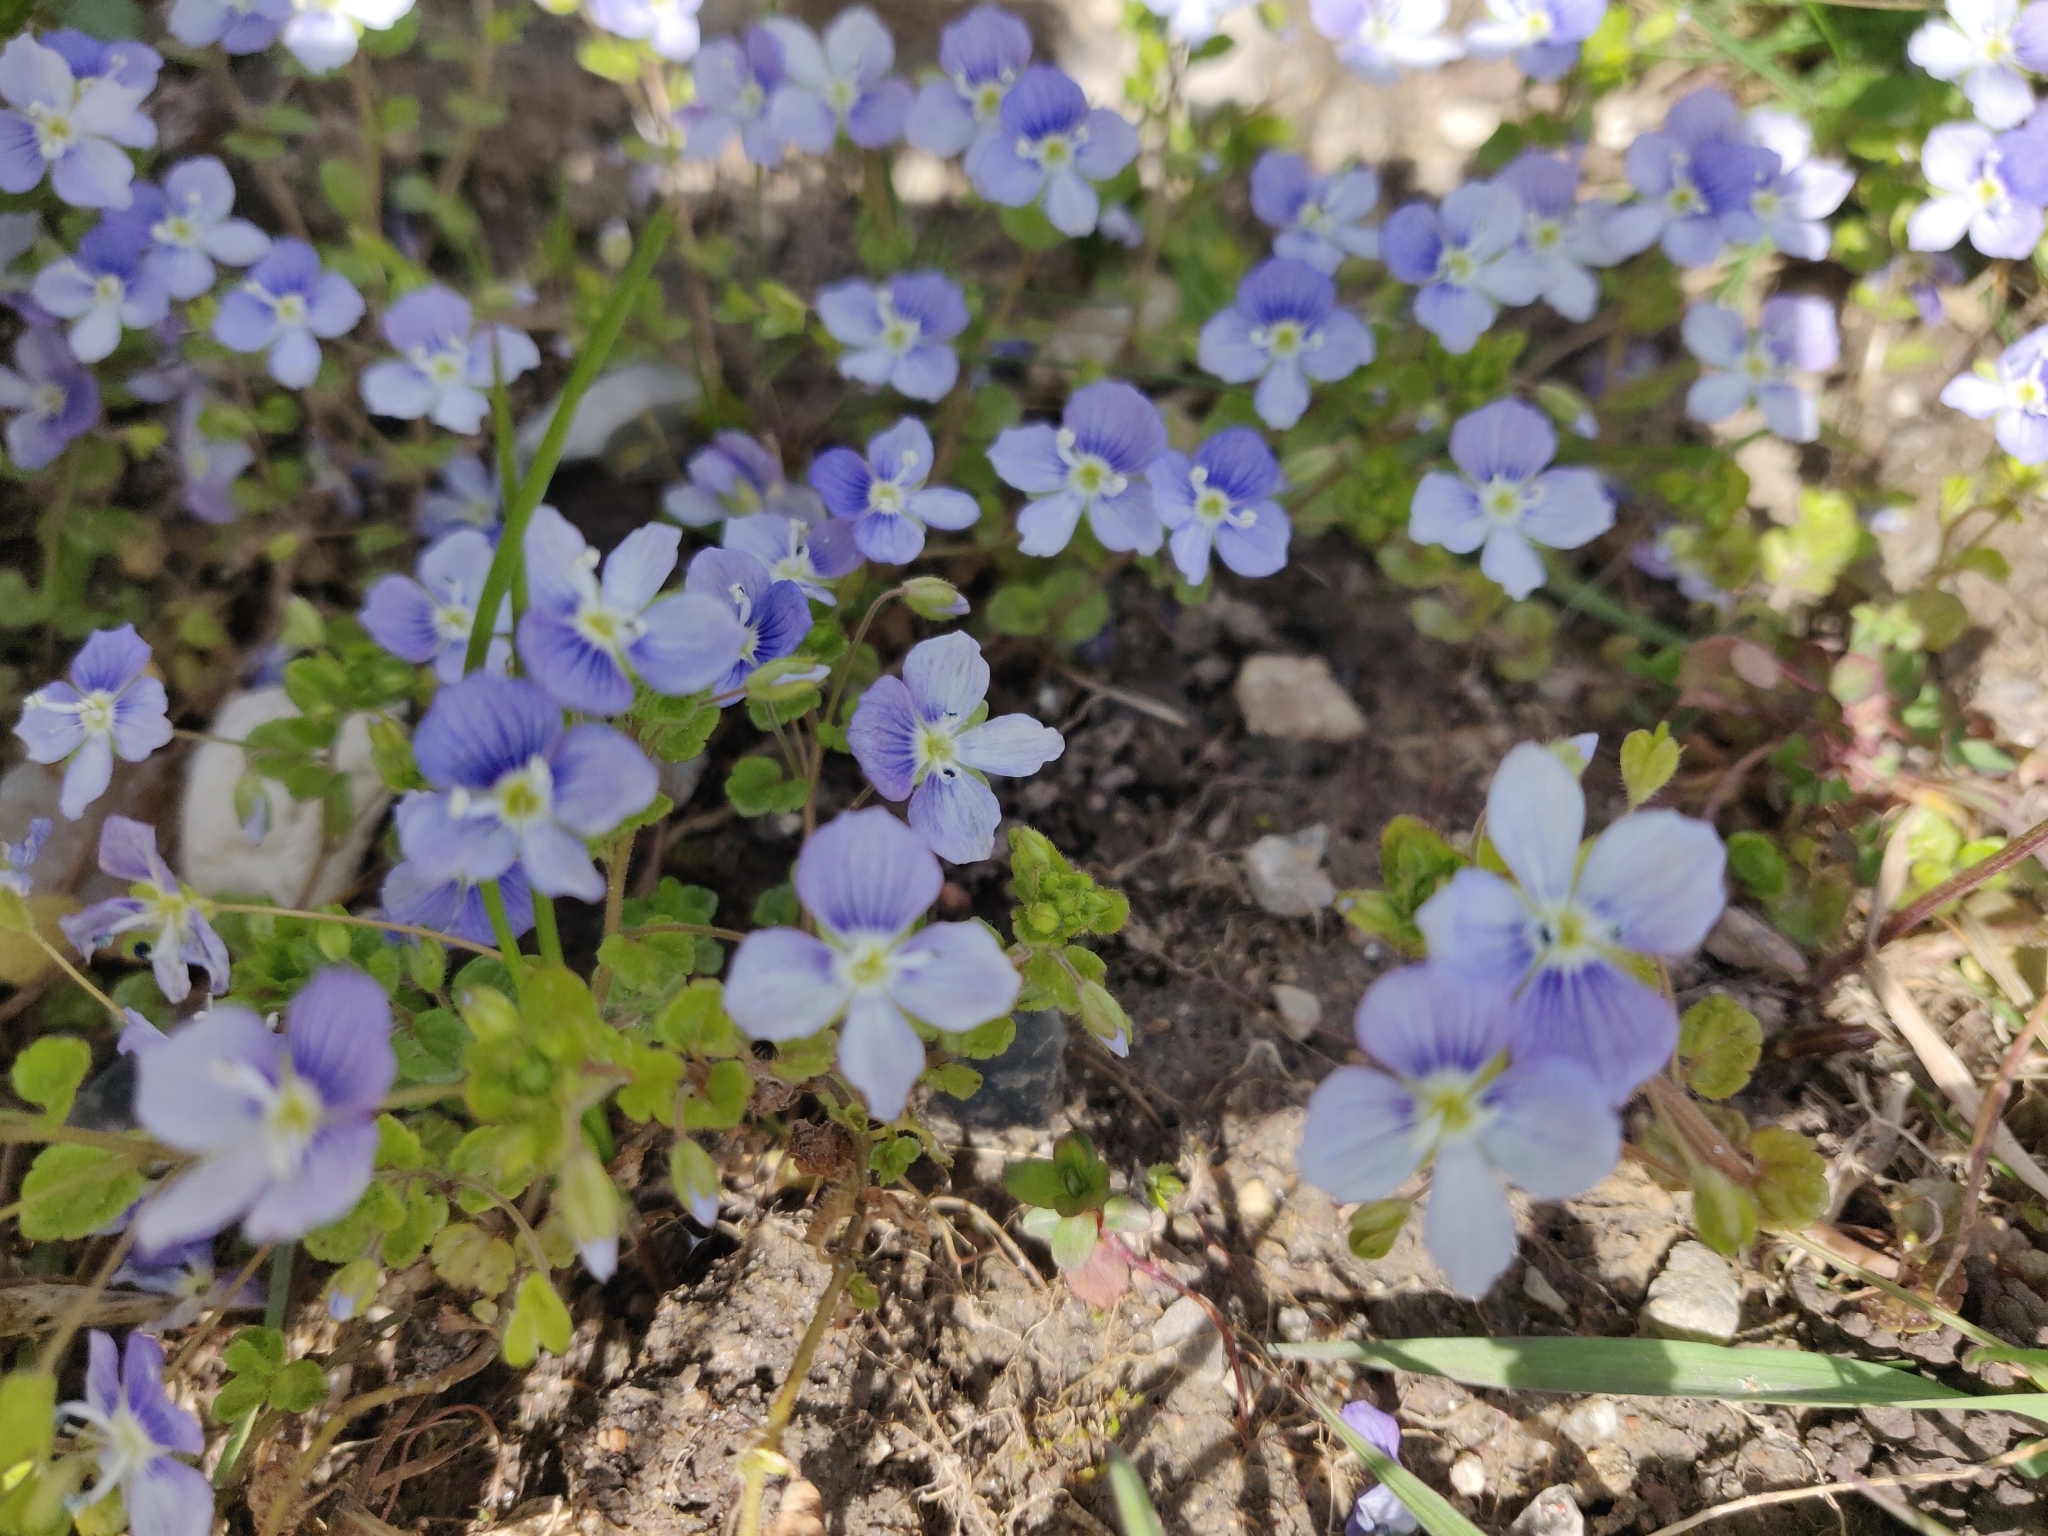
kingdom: Plantae
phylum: Tracheophyta
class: Magnoliopsida
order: Lamiales
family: Plantaginaceae
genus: Veronica
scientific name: Veronica filiformis
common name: Slender speedwell
